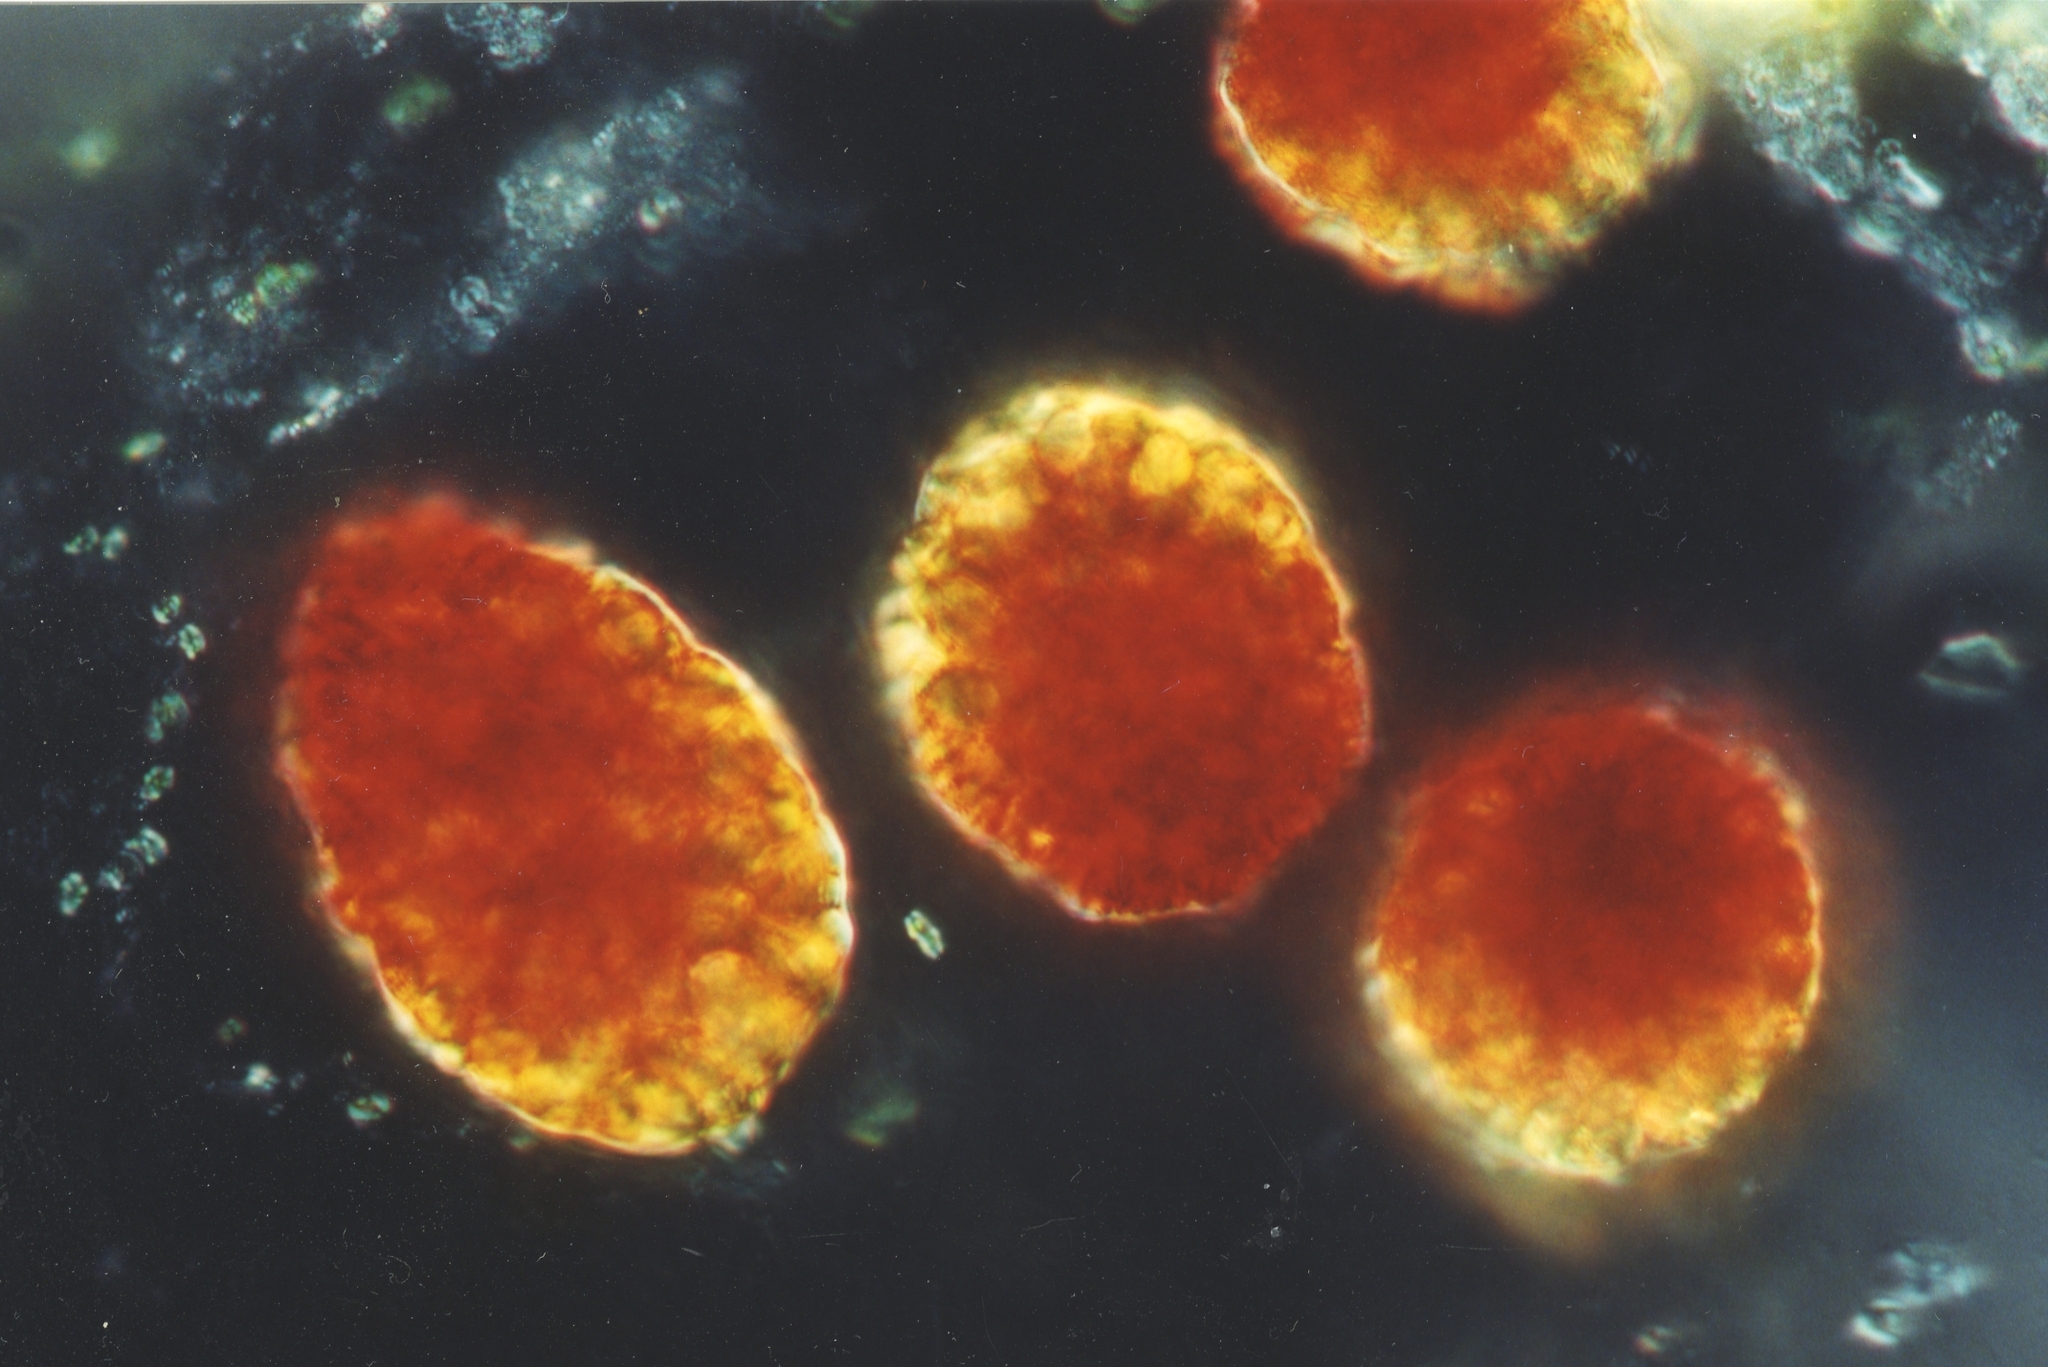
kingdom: Protozoa
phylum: Euglenozoa
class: Euglenoidea
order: Euglenida
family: Euglenaceae
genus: Euglena
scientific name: Euglena sanguinea
